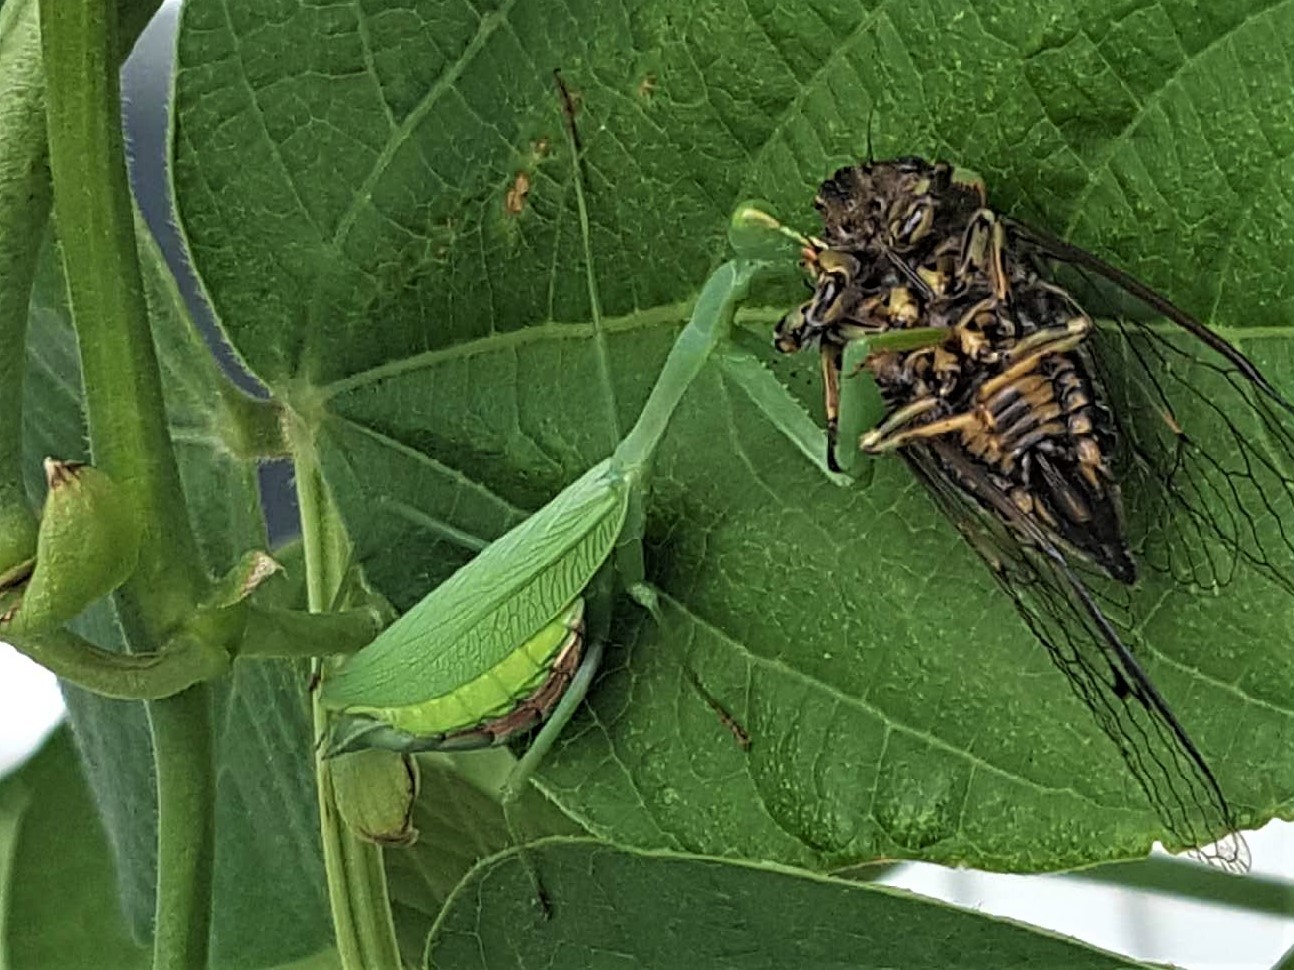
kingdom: Animalia
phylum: Arthropoda
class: Insecta
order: Mantodea
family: Miomantidae
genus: Miomantis
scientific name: Miomantis caffra
